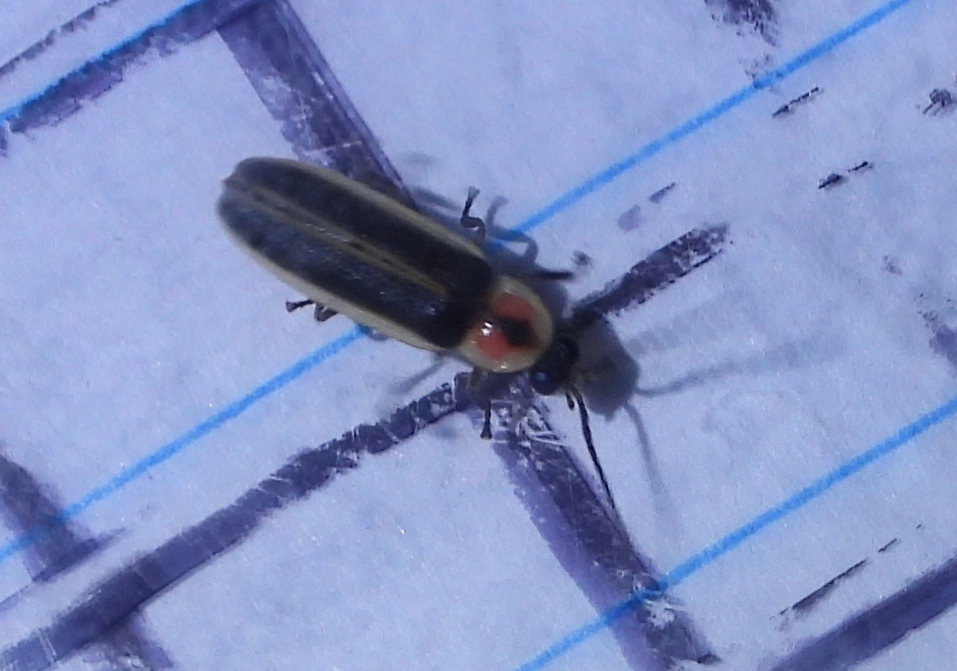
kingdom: Animalia
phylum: Arthropoda
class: Insecta
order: Coleoptera
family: Lampyridae
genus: Photinus
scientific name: Photinus sabulosus
